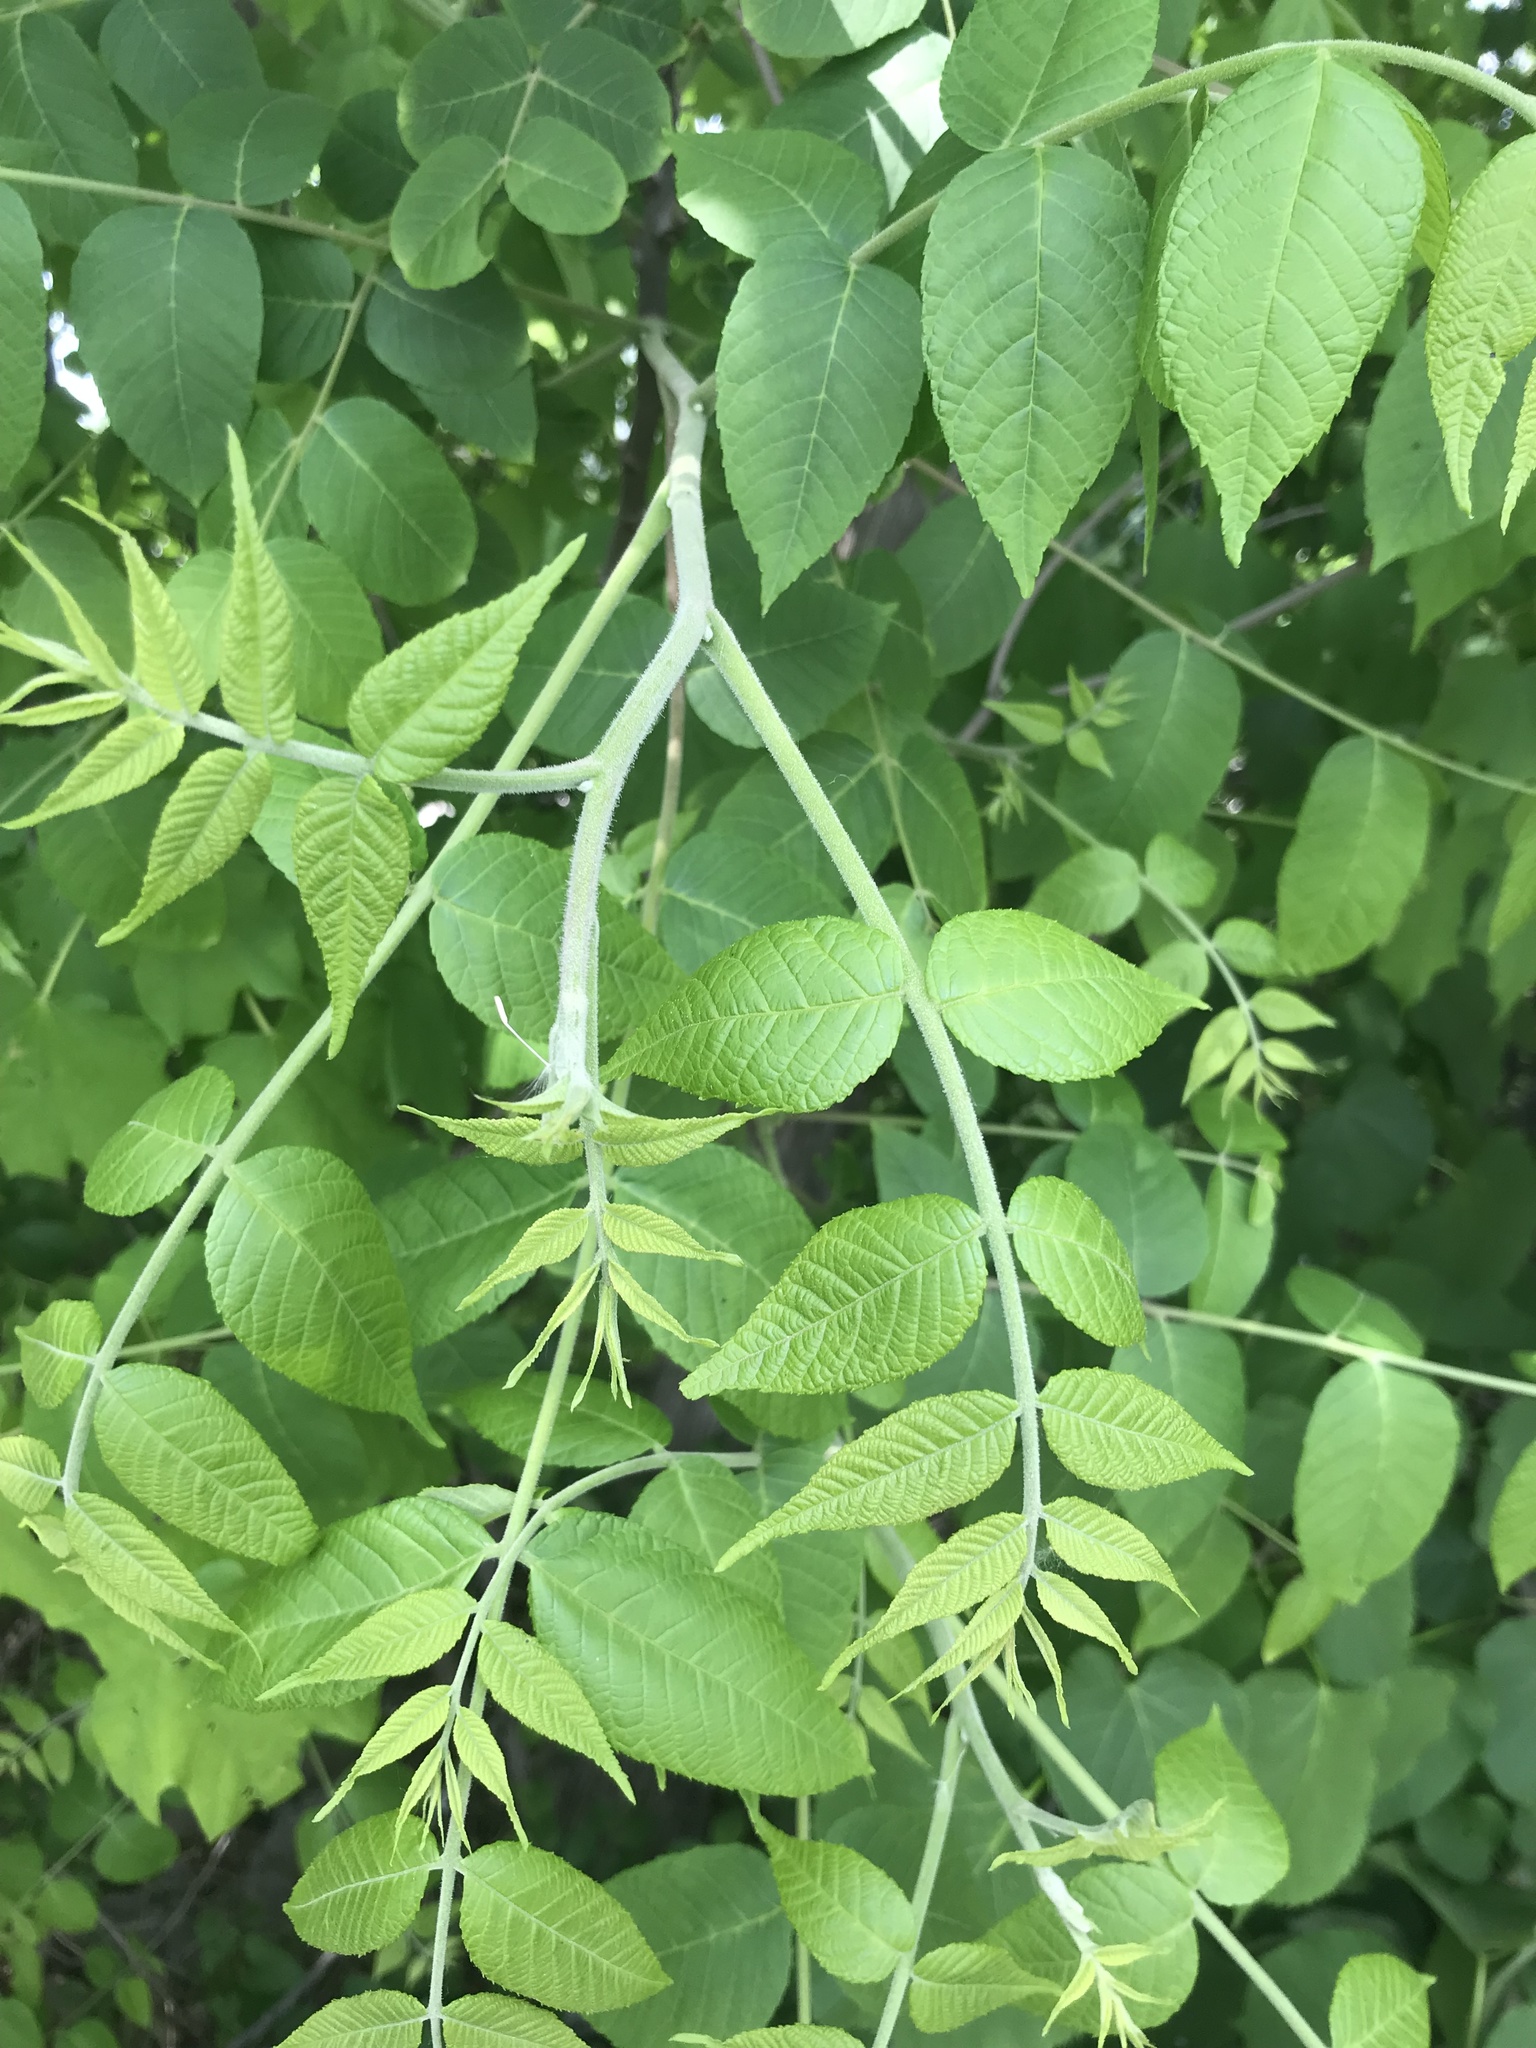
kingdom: Plantae
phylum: Tracheophyta
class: Magnoliopsida
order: Fagales
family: Juglandaceae
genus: Juglans
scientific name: Juglans nigra
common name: Black walnut
